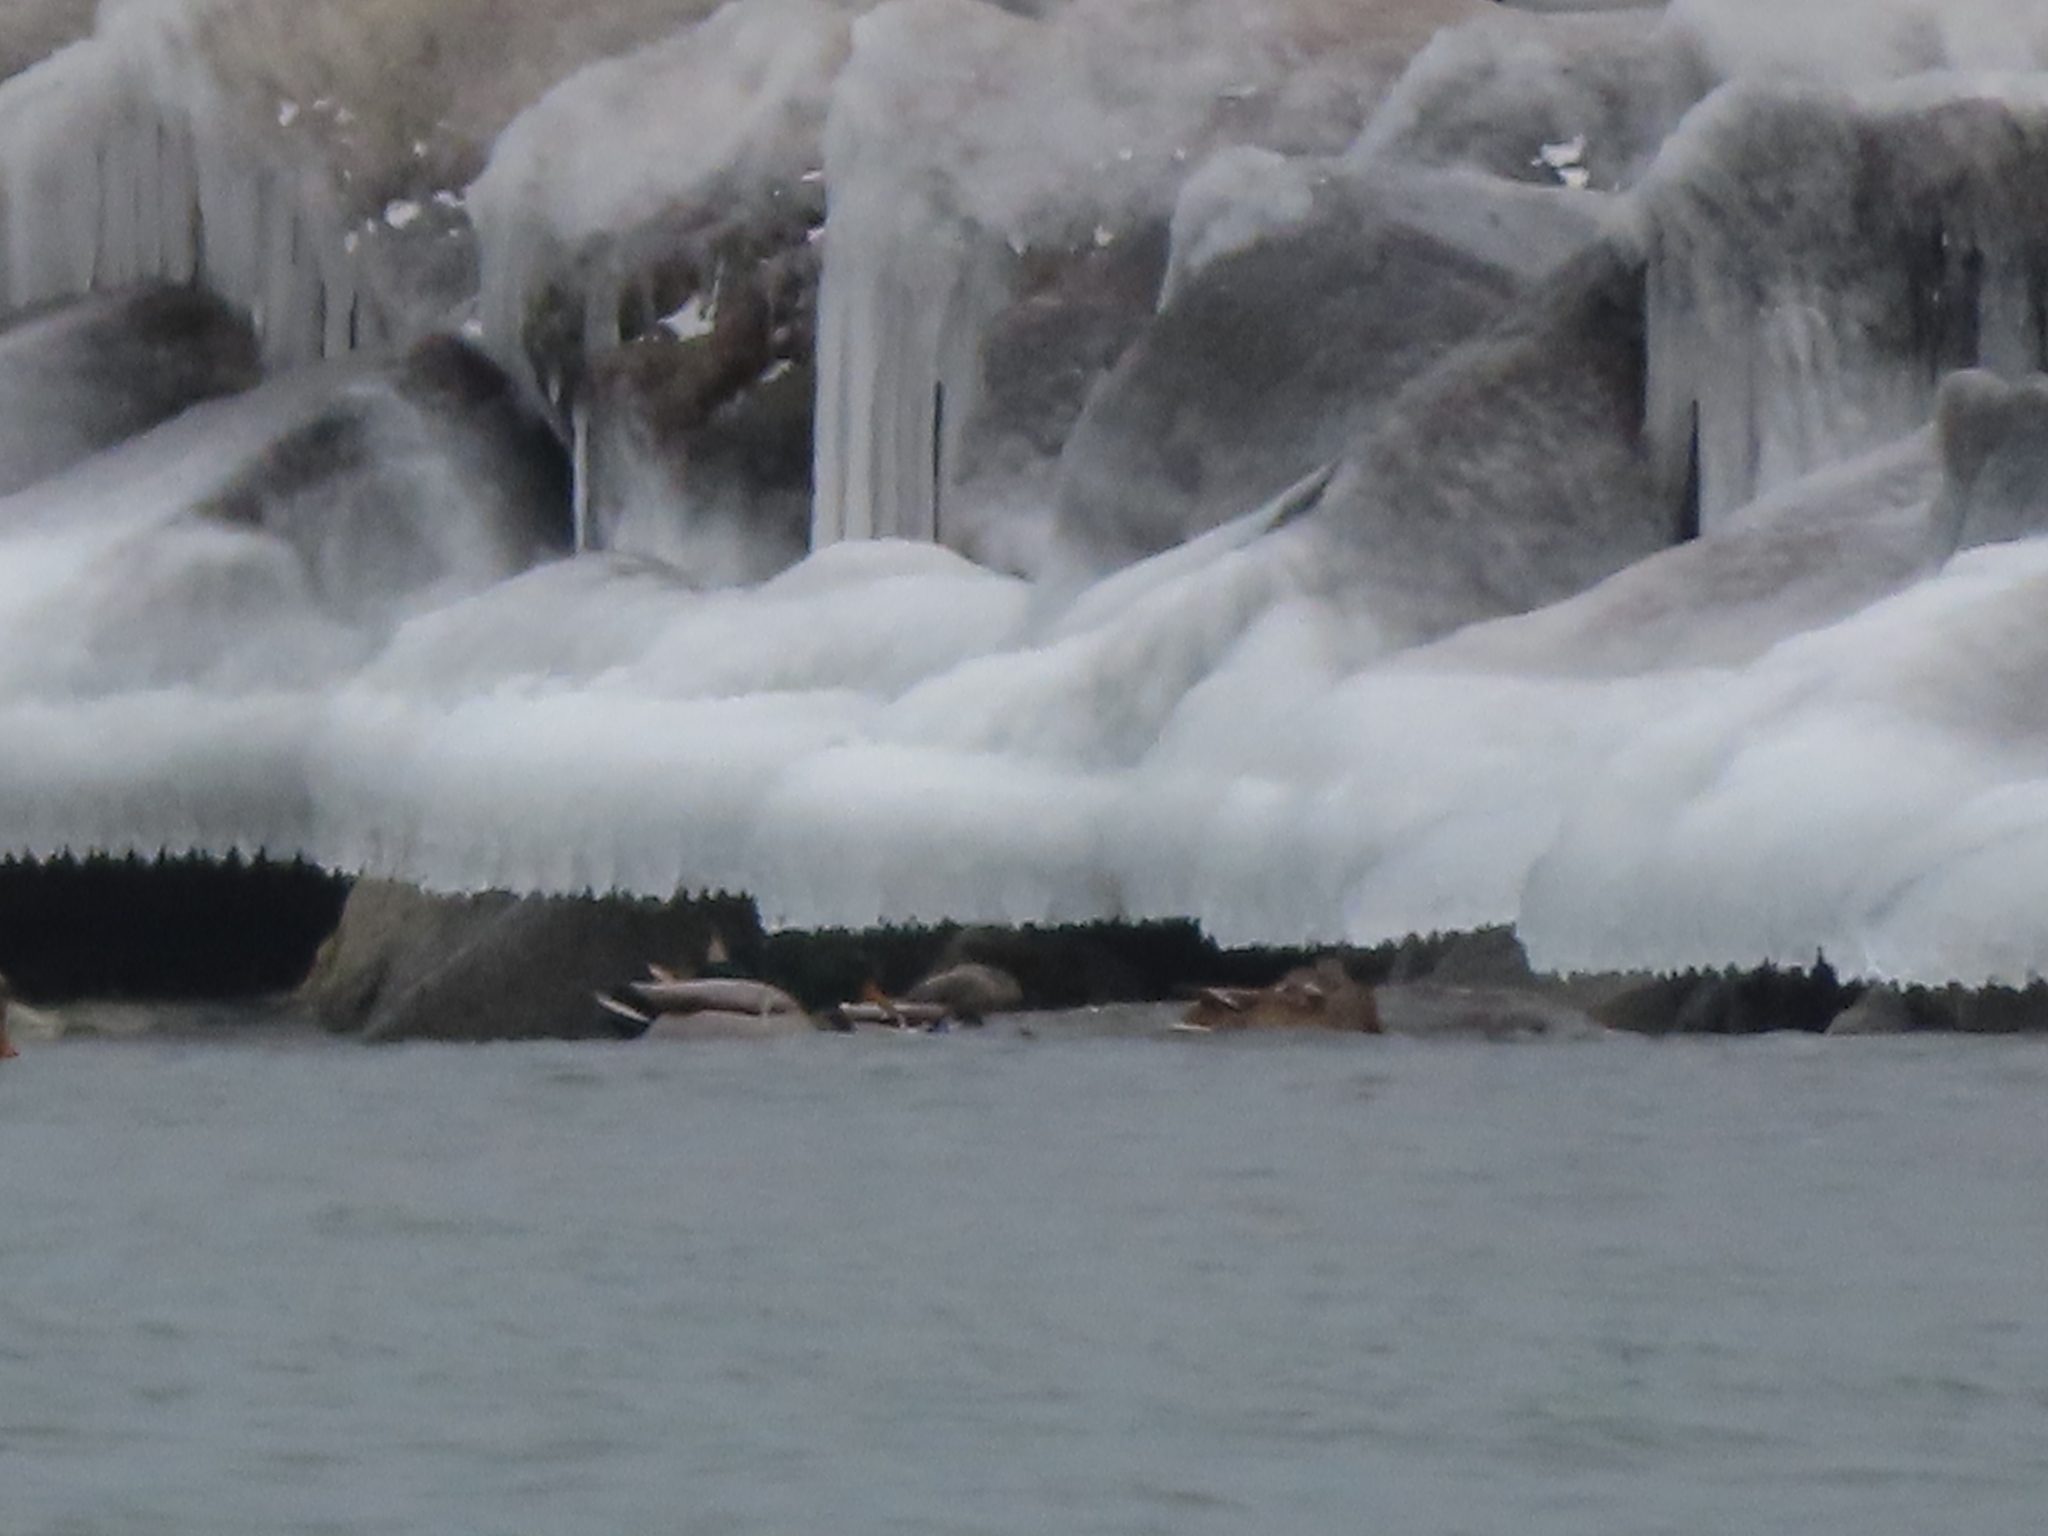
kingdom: Animalia
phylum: Chordata
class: Aves
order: Anseriformes
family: Anatidae
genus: Anas
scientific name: Anas platyrhynchos
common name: Mallard
